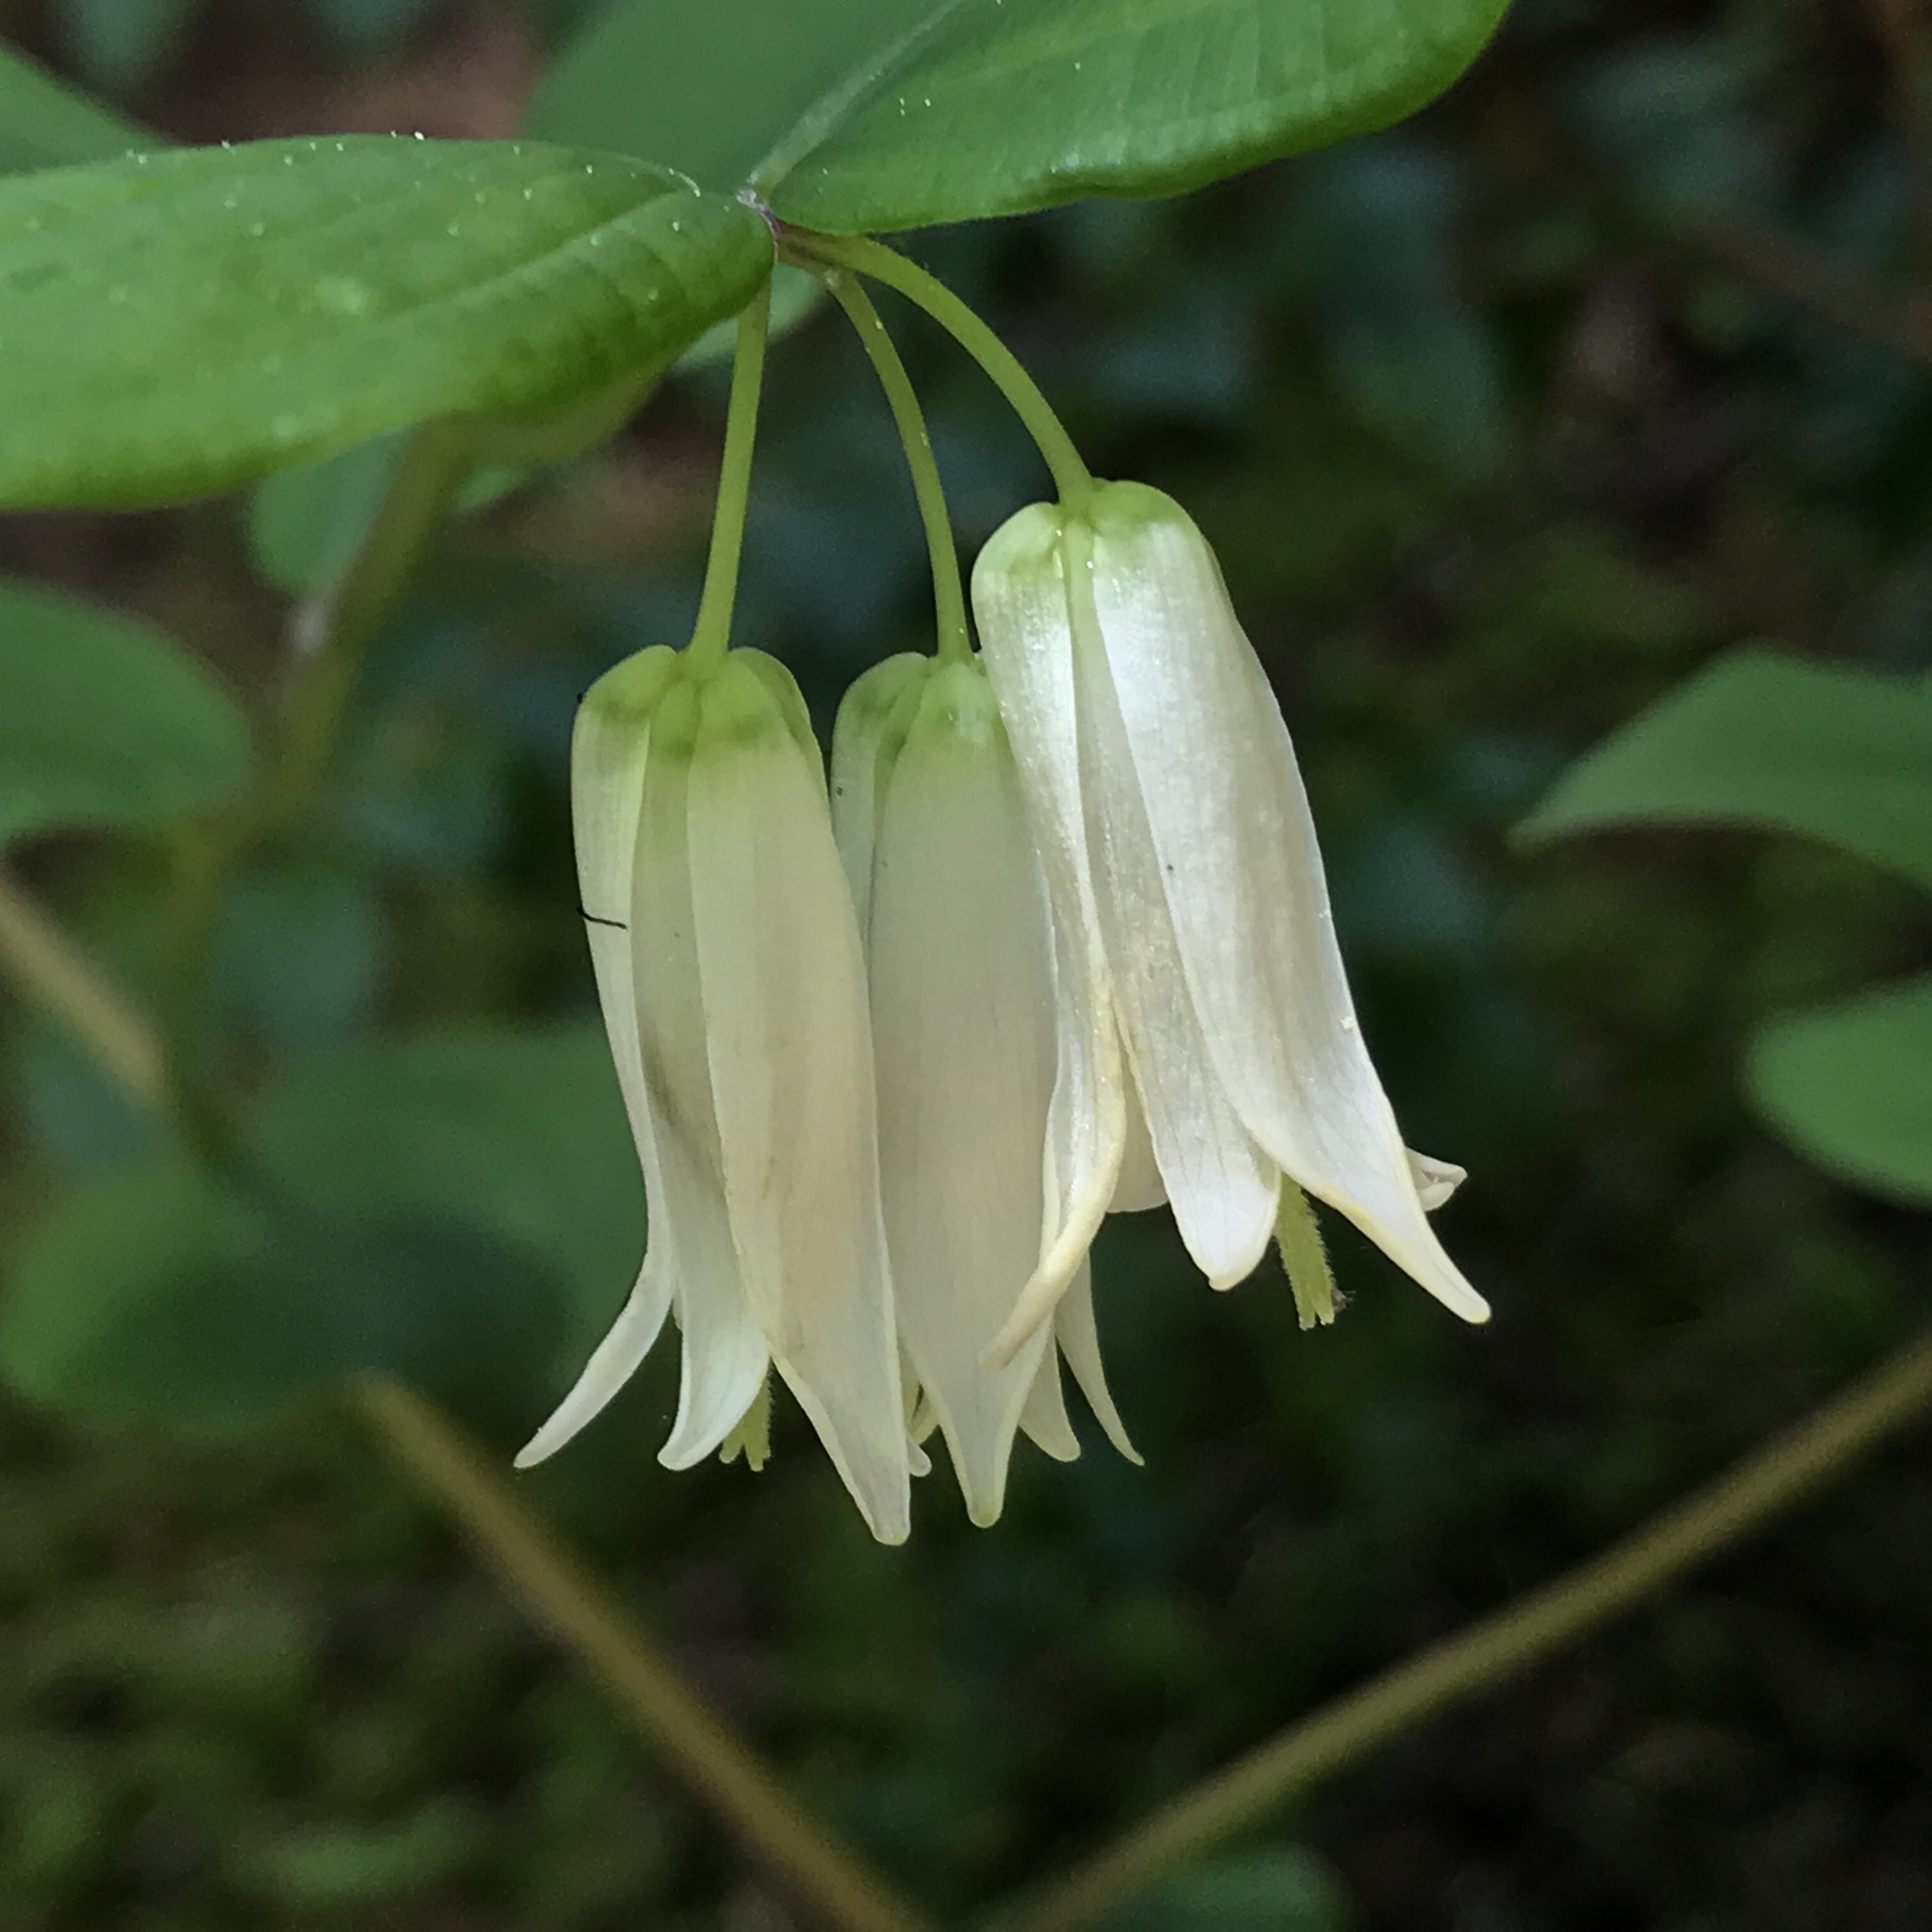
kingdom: Plantae
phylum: Tracheophyta
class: Liliopsida
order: Liliales
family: Liliaceae
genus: Prosartes
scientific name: Prosartes smithii
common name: Fairy-lantern
